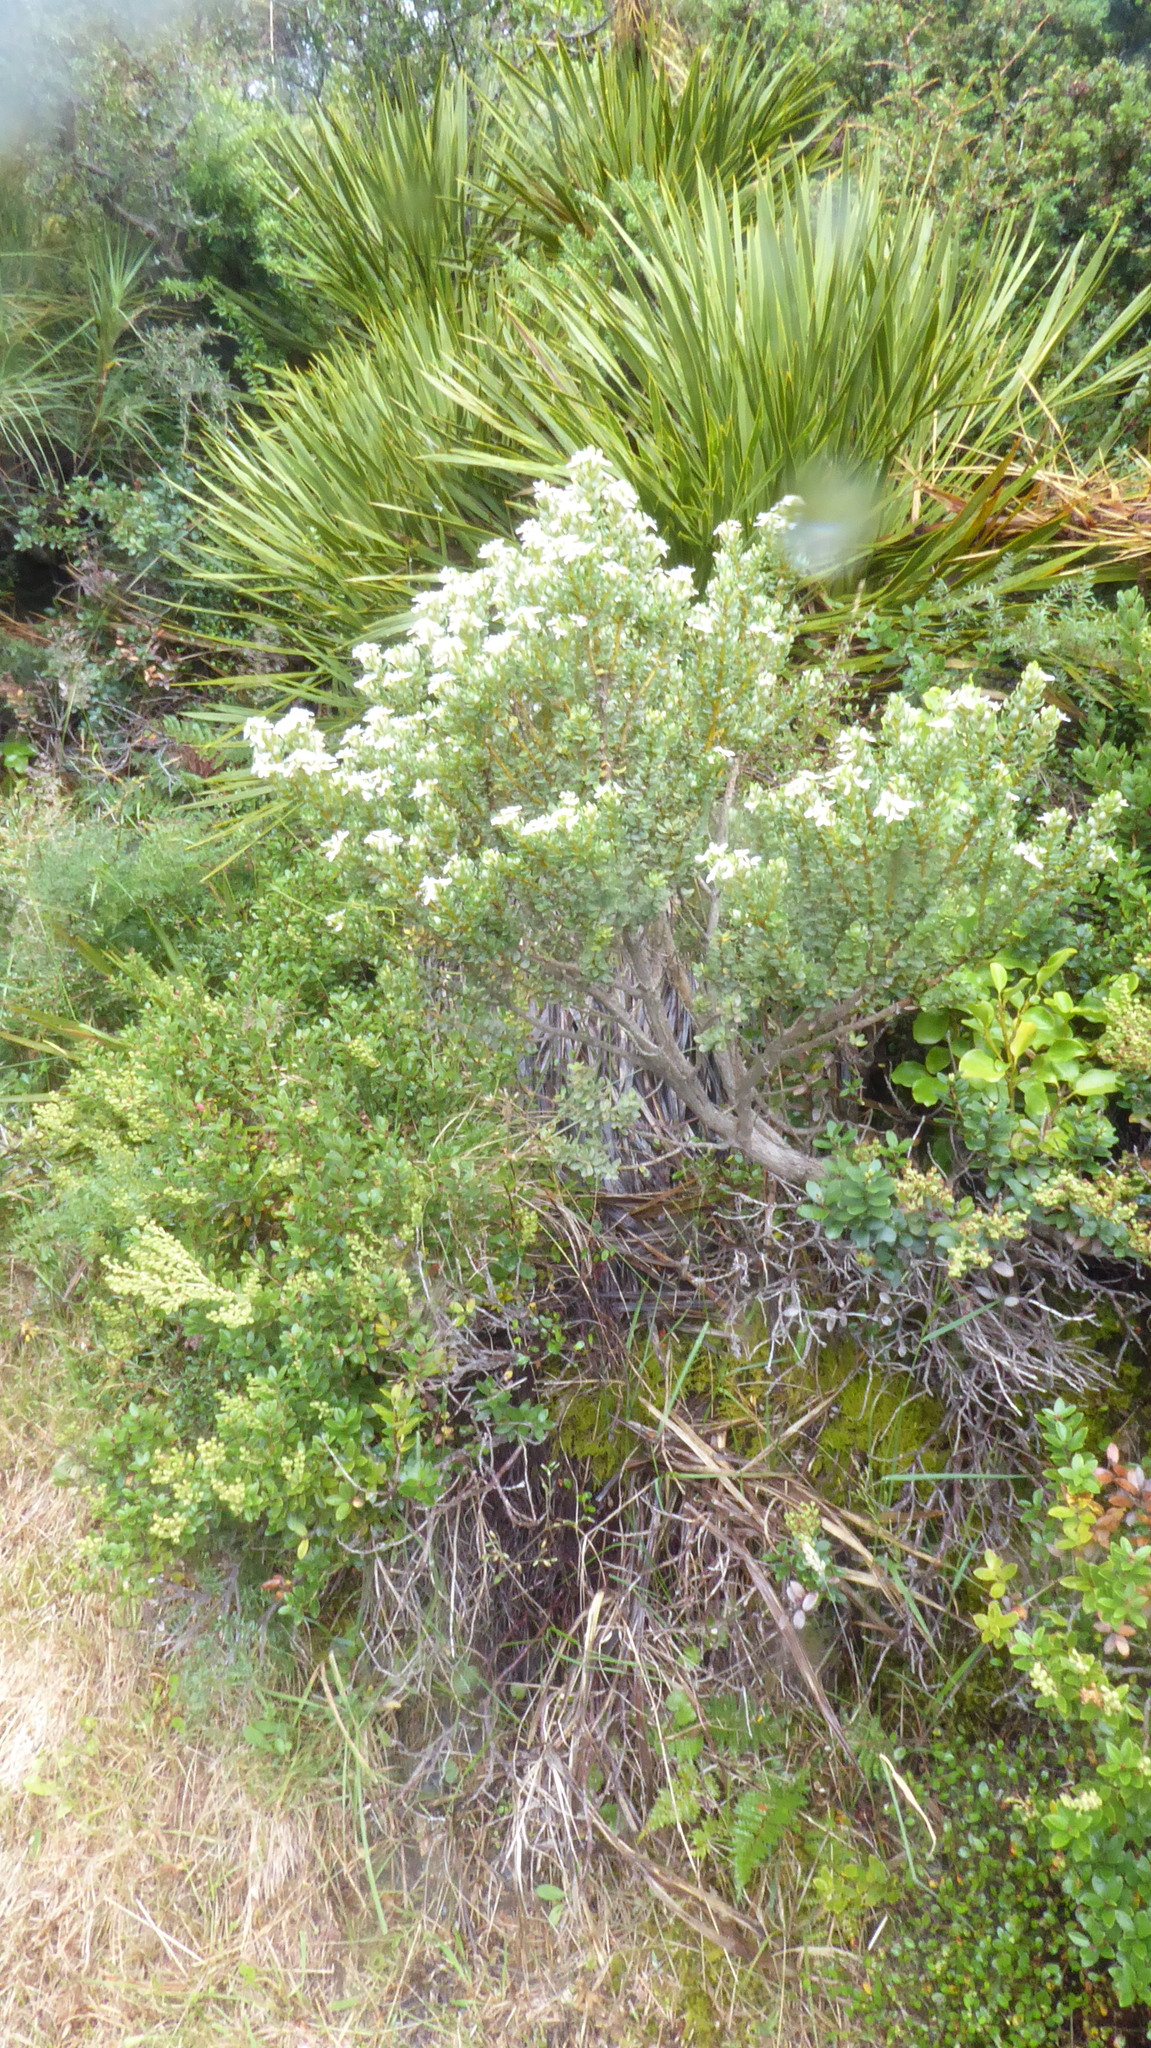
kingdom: Plantae
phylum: Tracheophyta
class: Magnoliopsida
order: Asterales
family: Asteraceae
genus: Olearia
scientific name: Olearia nummularifolia
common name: Sticky daisybush
